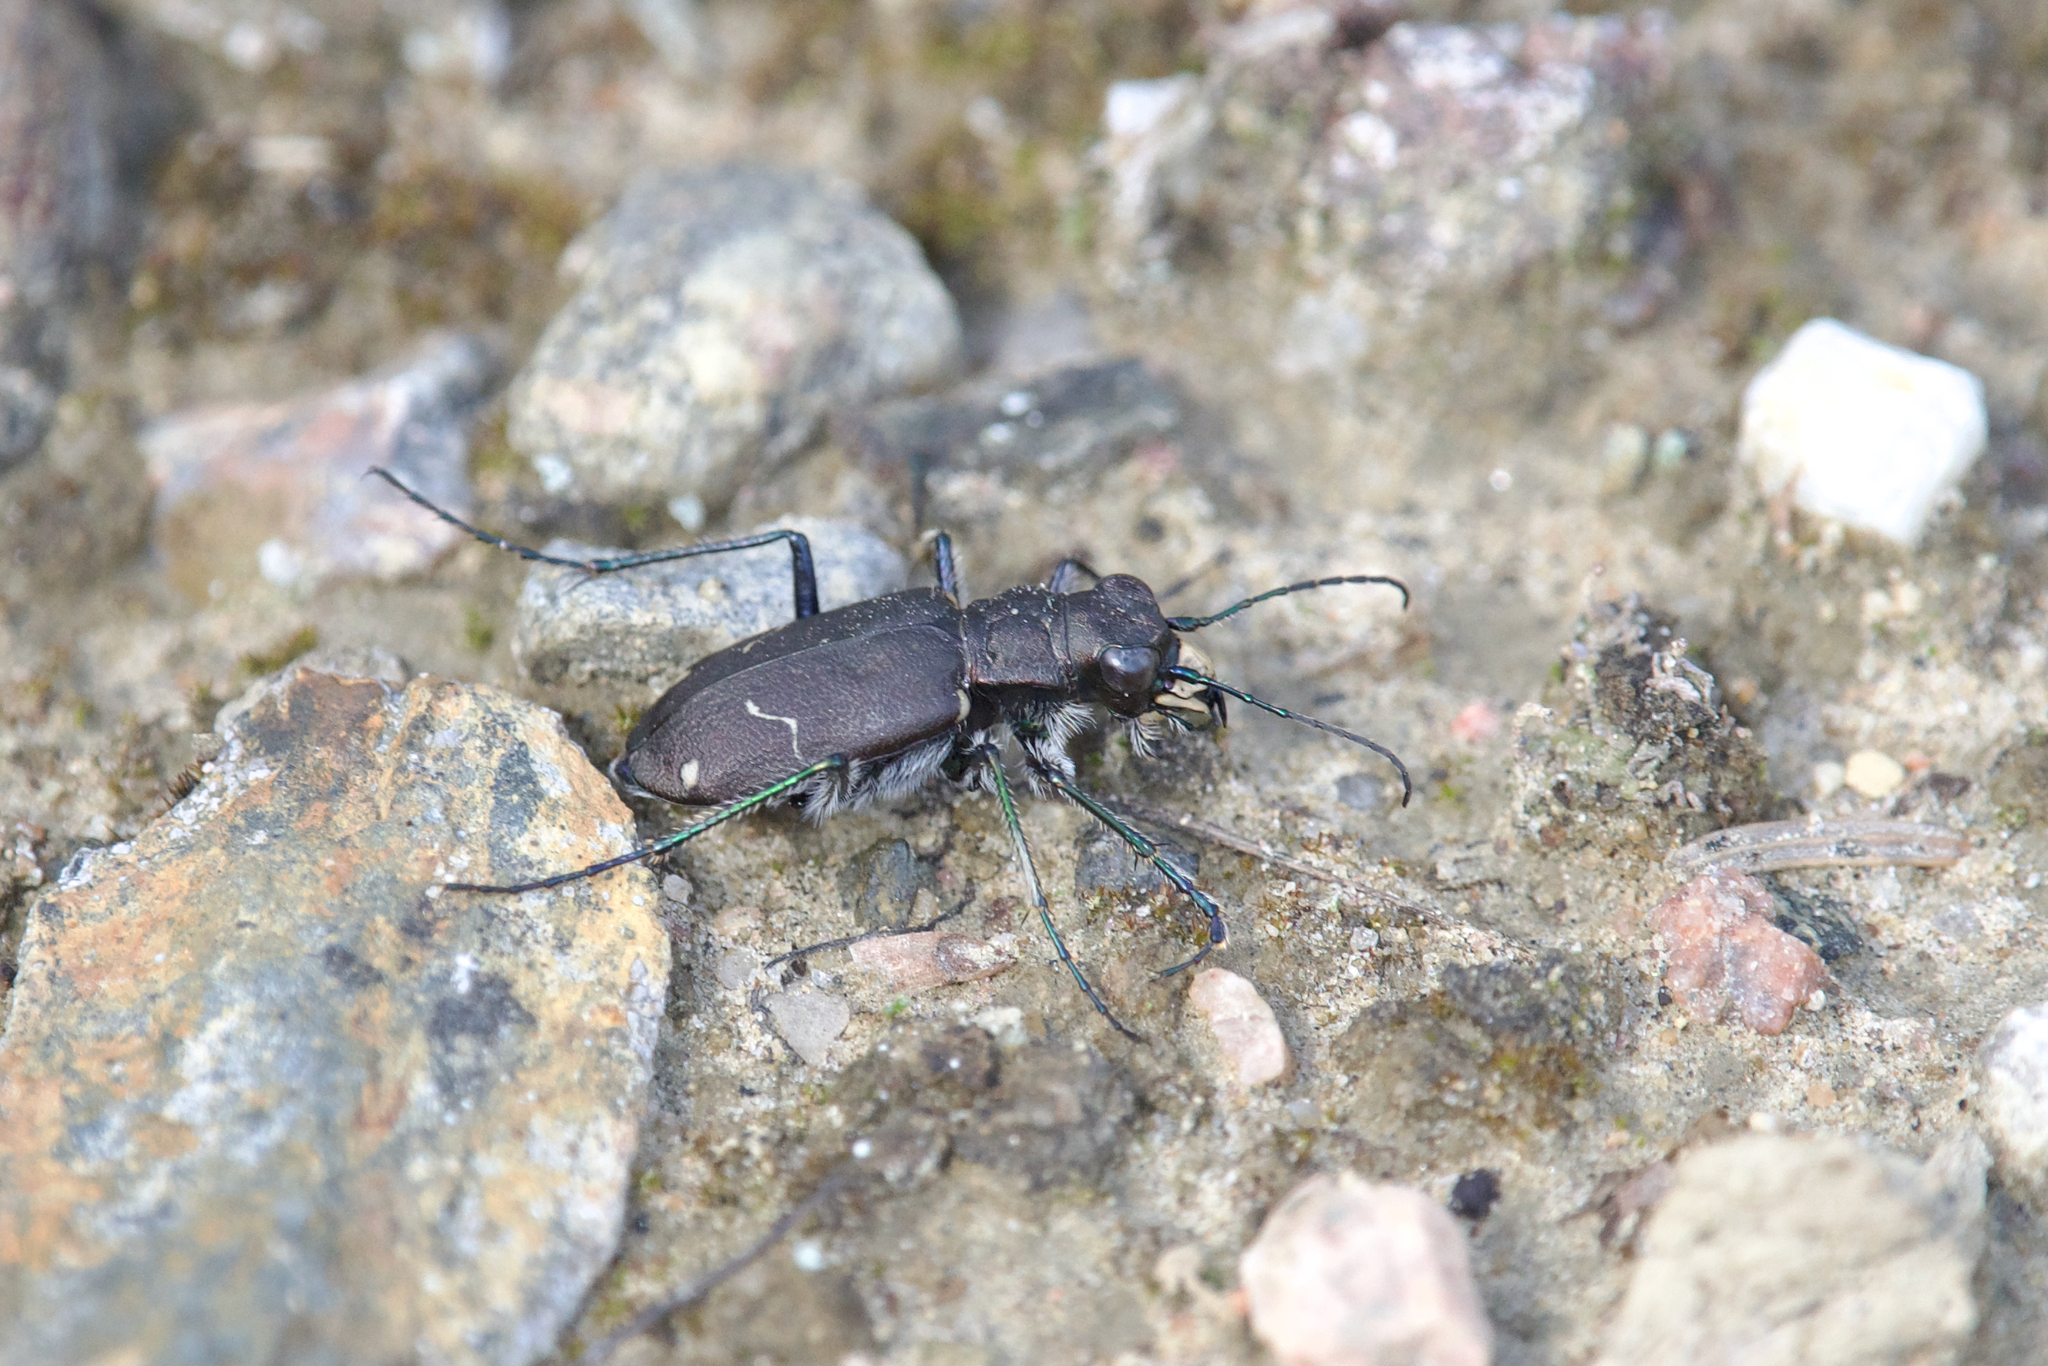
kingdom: Animalia
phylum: Arthropoda
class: Insecta
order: Coleoptera
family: Carabidae
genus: Cicindela
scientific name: Cicindela longilabris
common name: Boreal long-lipped tiger beetle
